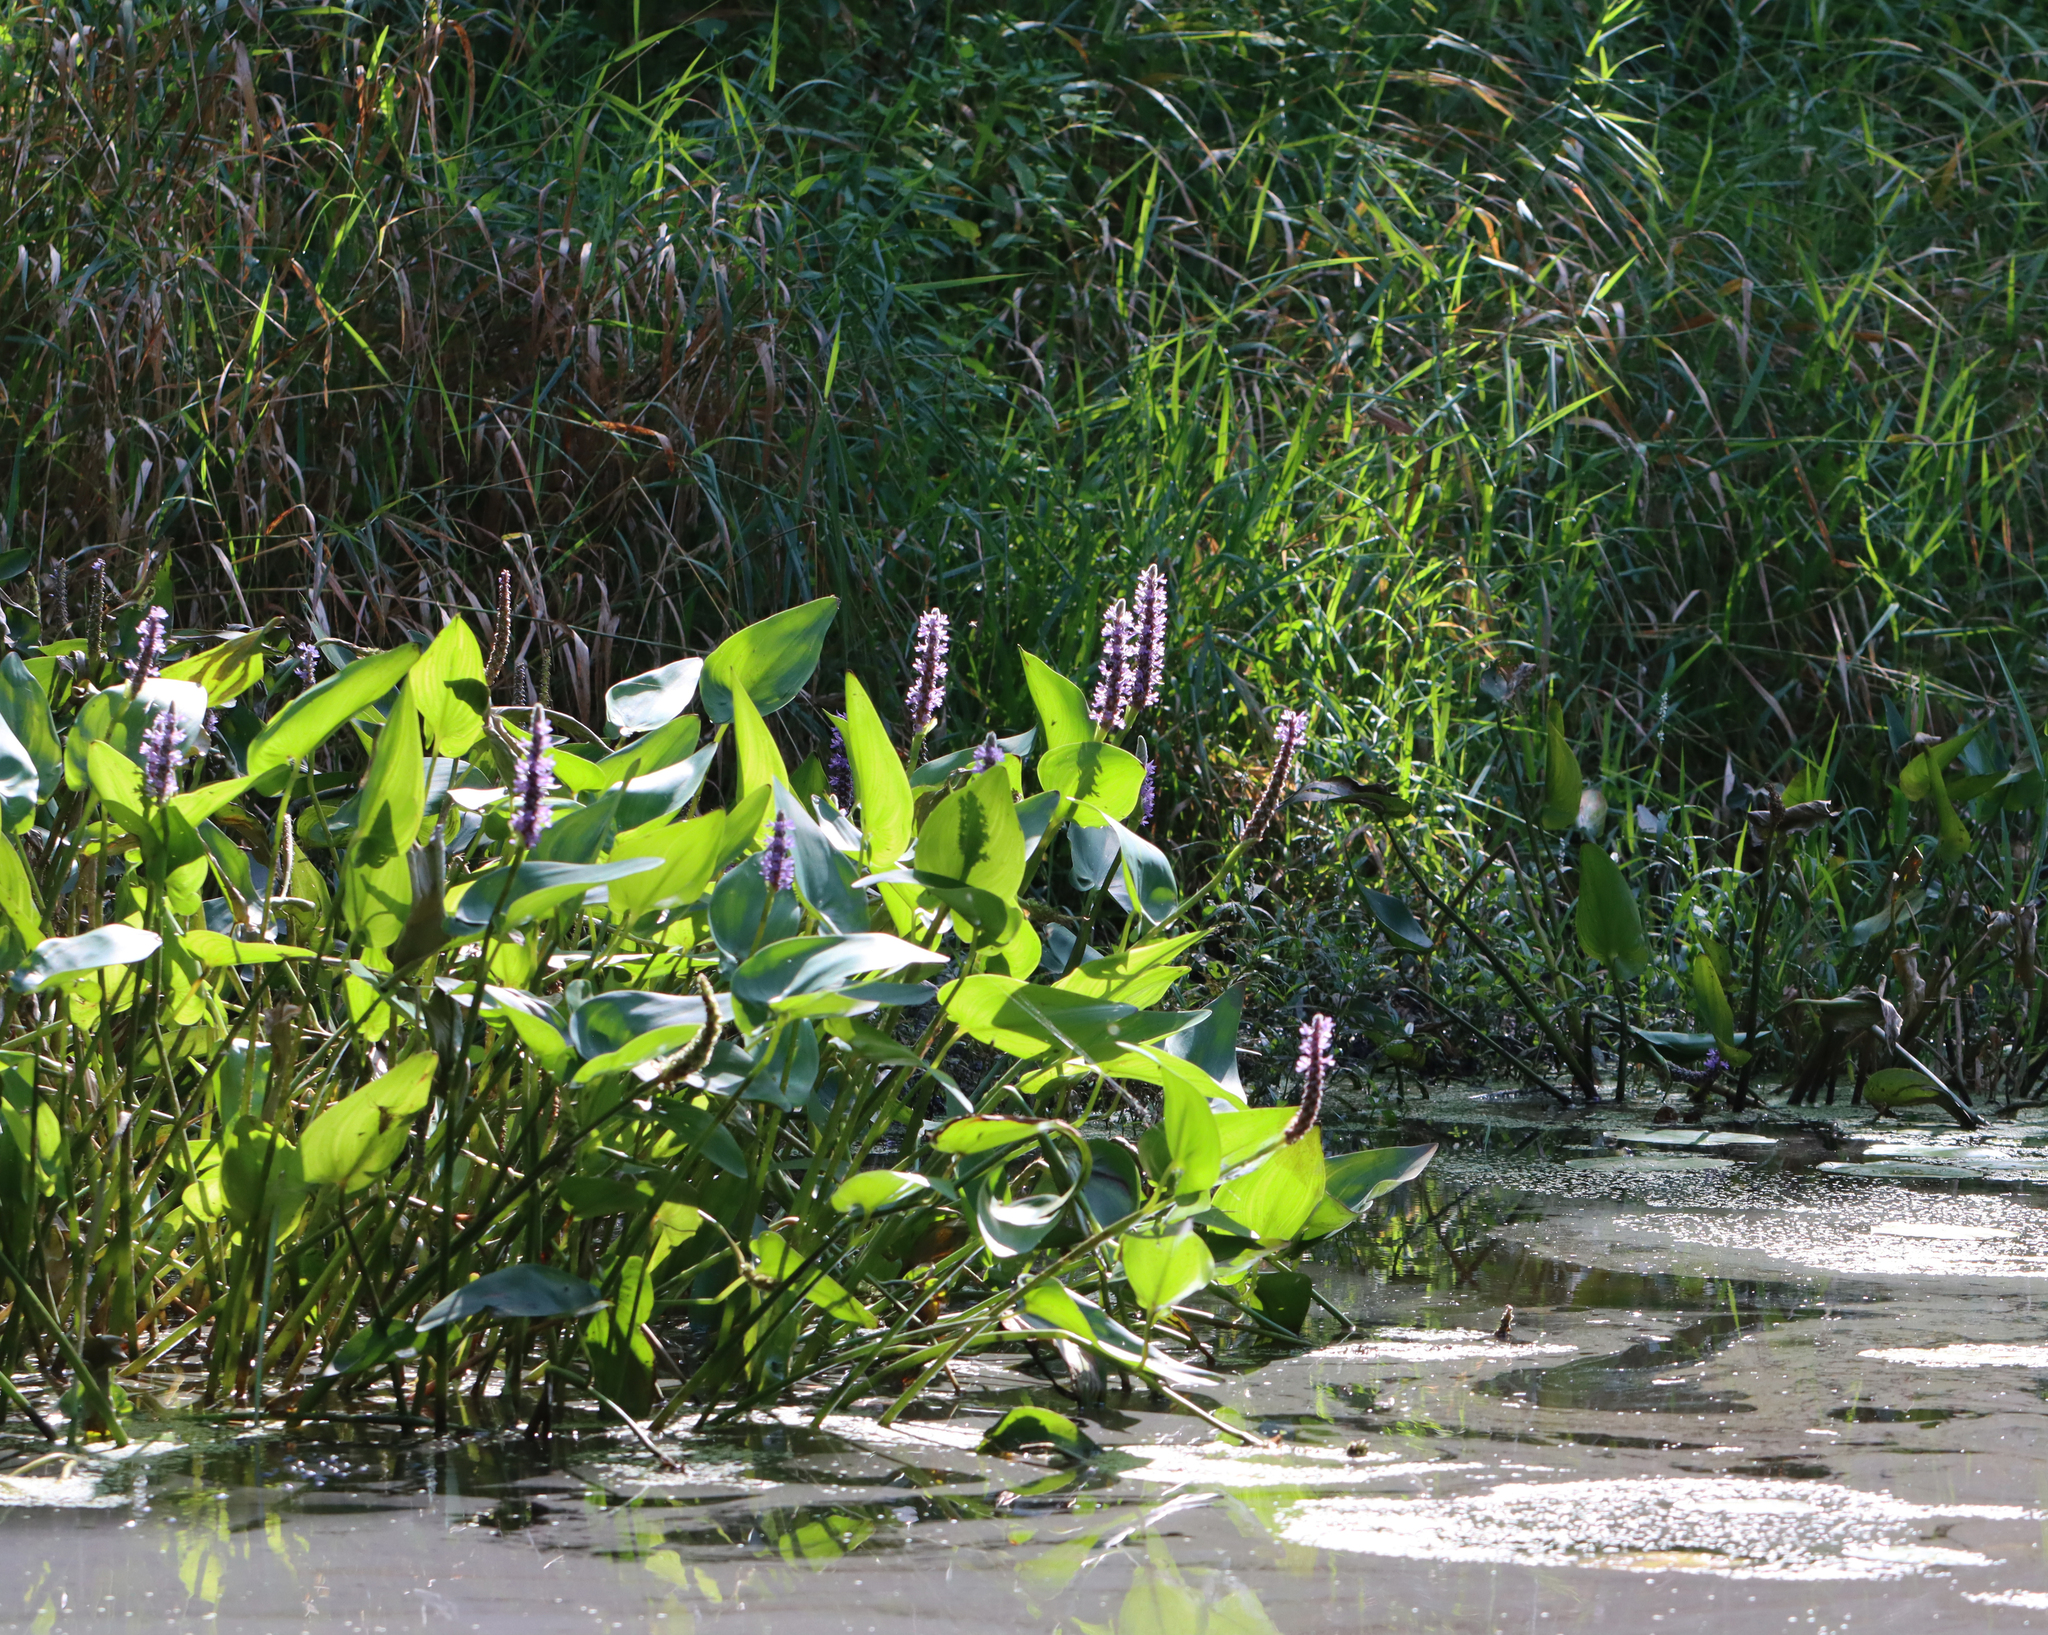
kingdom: Plantae
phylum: Tracheophyta
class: Liliopsida
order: Commelinales
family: Pontederiaceae
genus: Pontederia
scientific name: Pontederia cordata
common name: Pickerelweed
